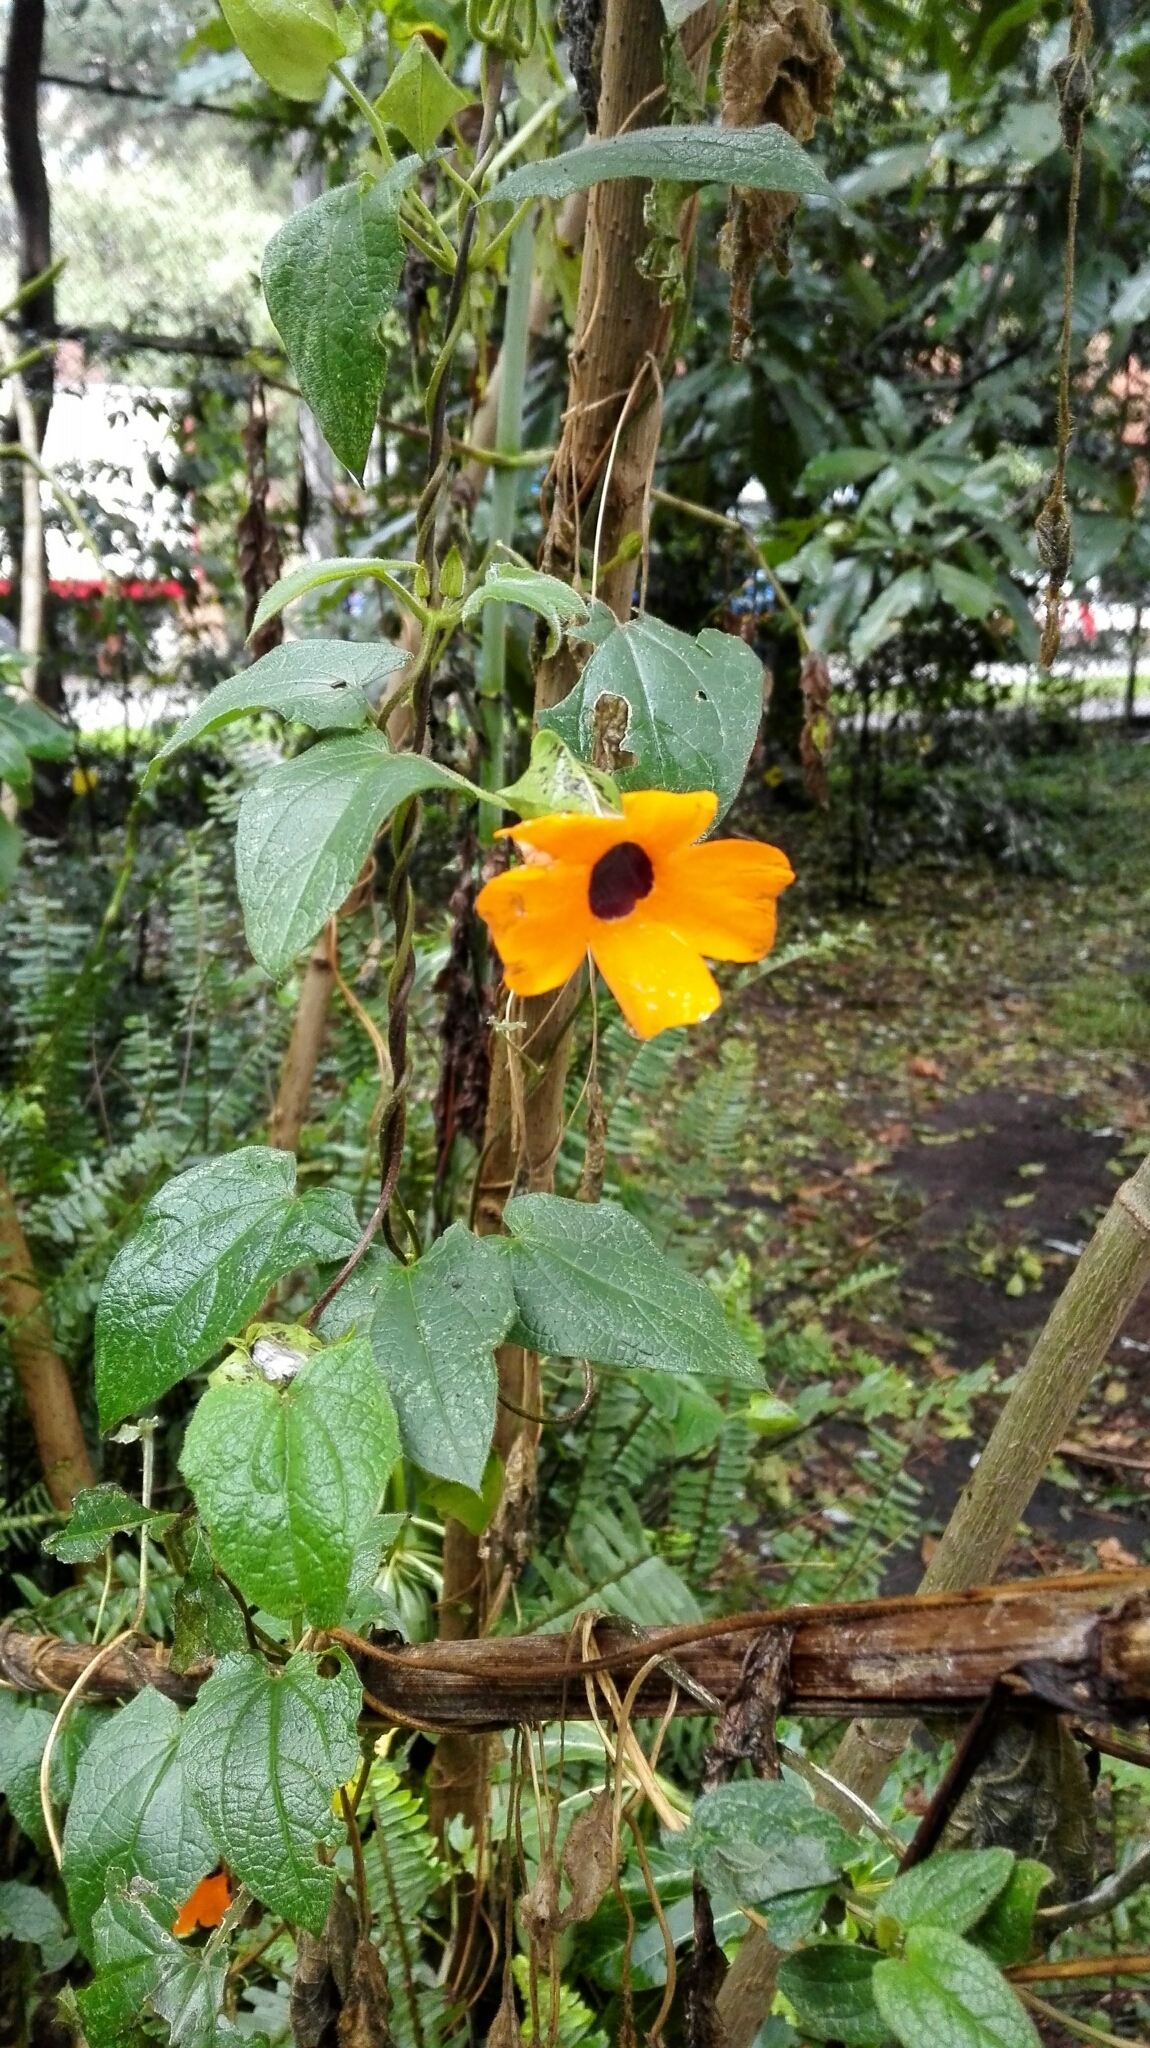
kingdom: Plantae
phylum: Tracheophyta
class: Magnoliopsida
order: Lamiales
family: Acanthaceae
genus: Thunbergia
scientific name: Thunbergia alata
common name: Blackeyed susan vine
